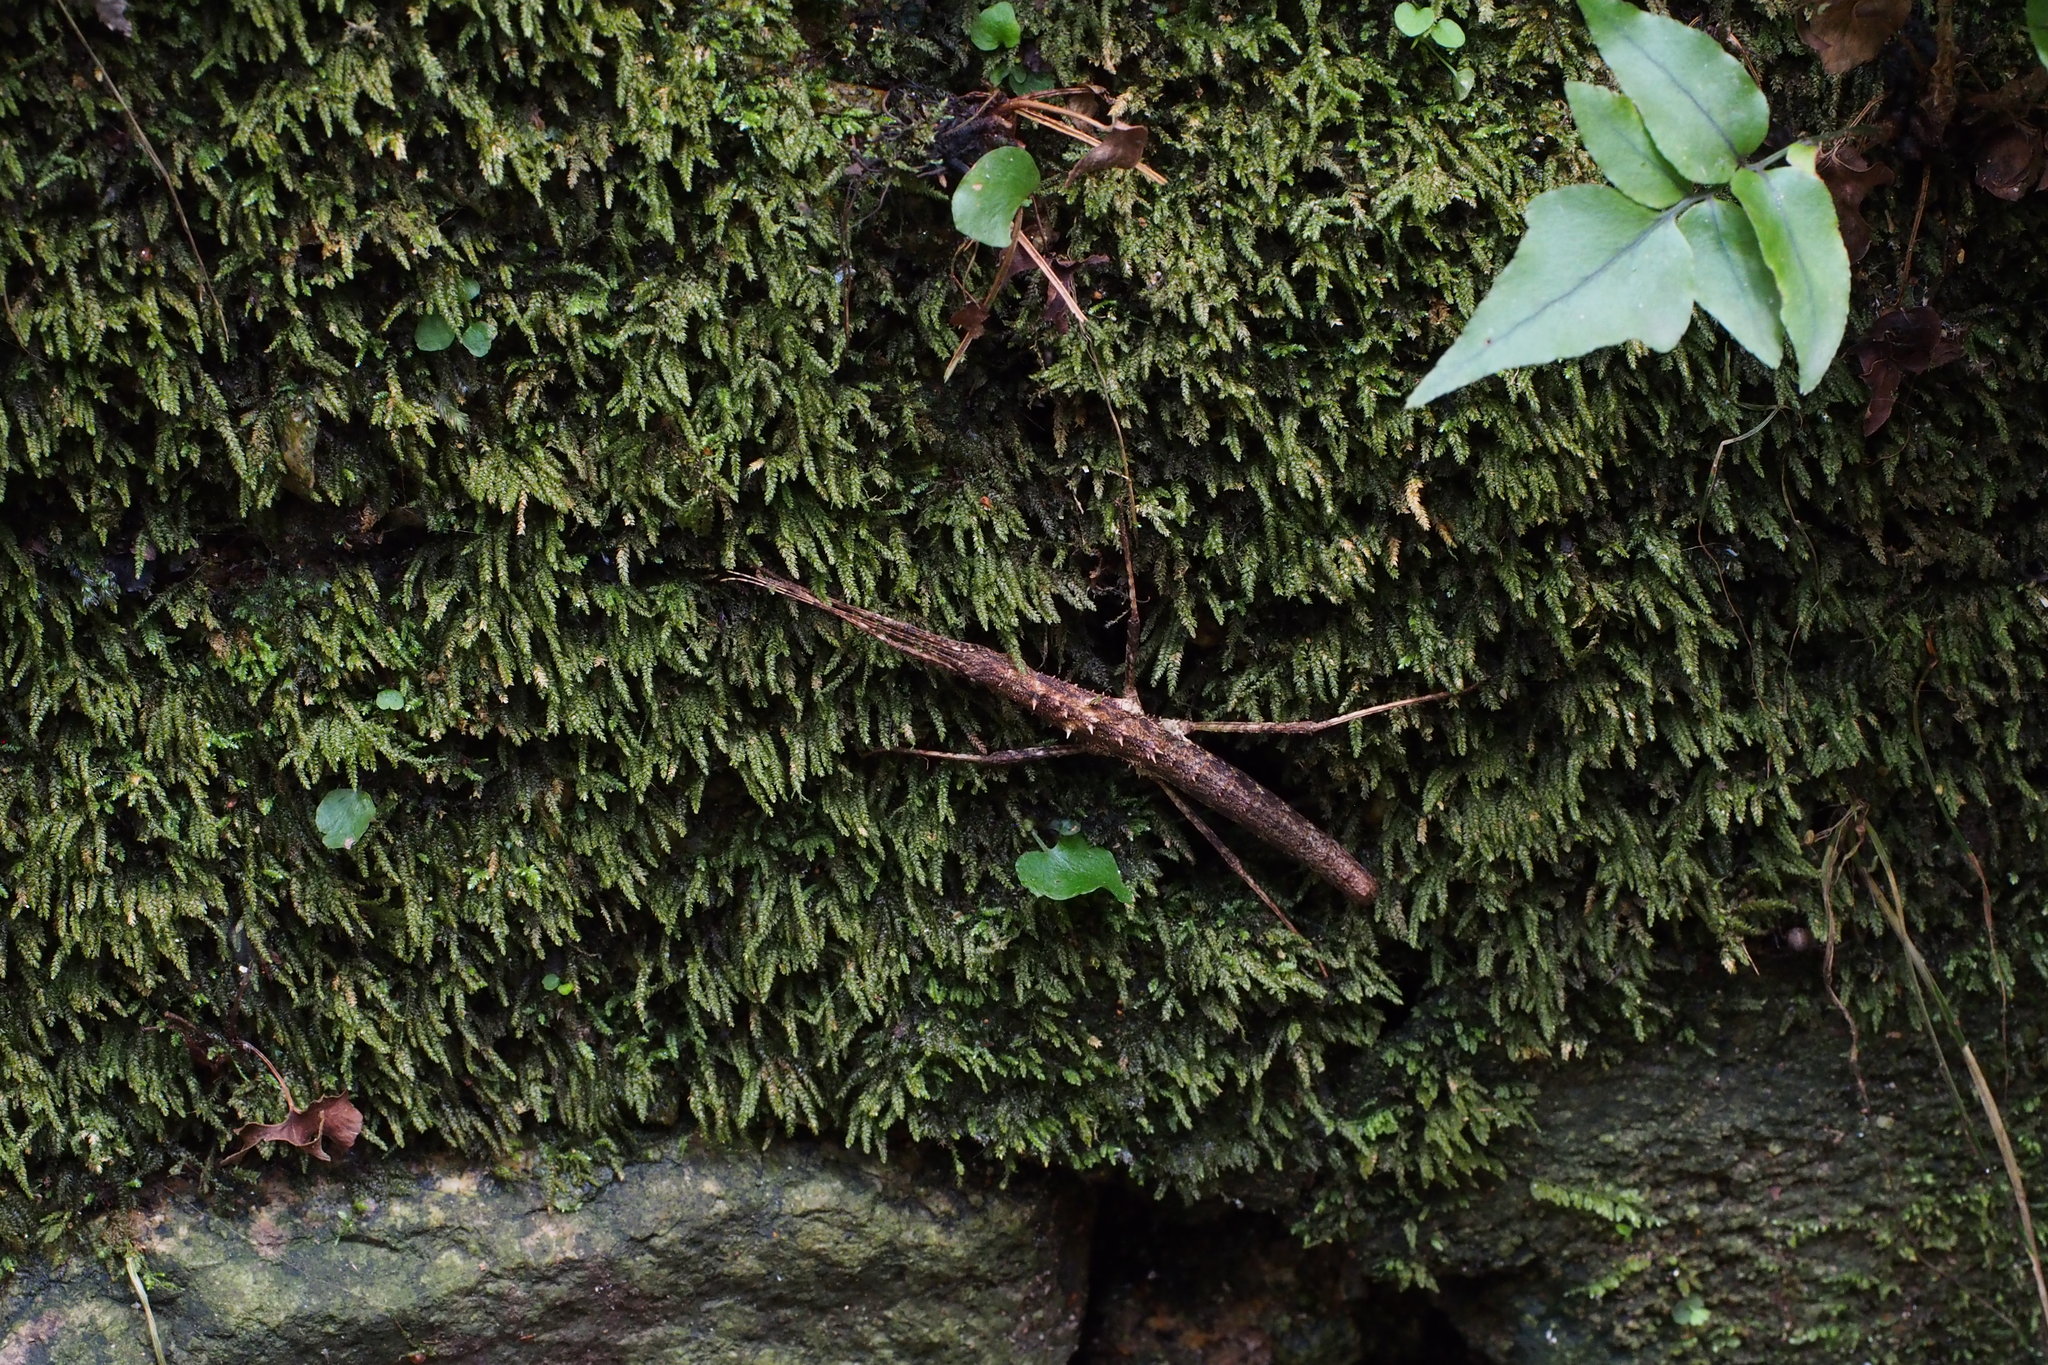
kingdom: Animalia
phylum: Arthropoda
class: Insecta
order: Phasmida
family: Lonchodidae
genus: Neohirasea
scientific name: Neohirasea japonica
